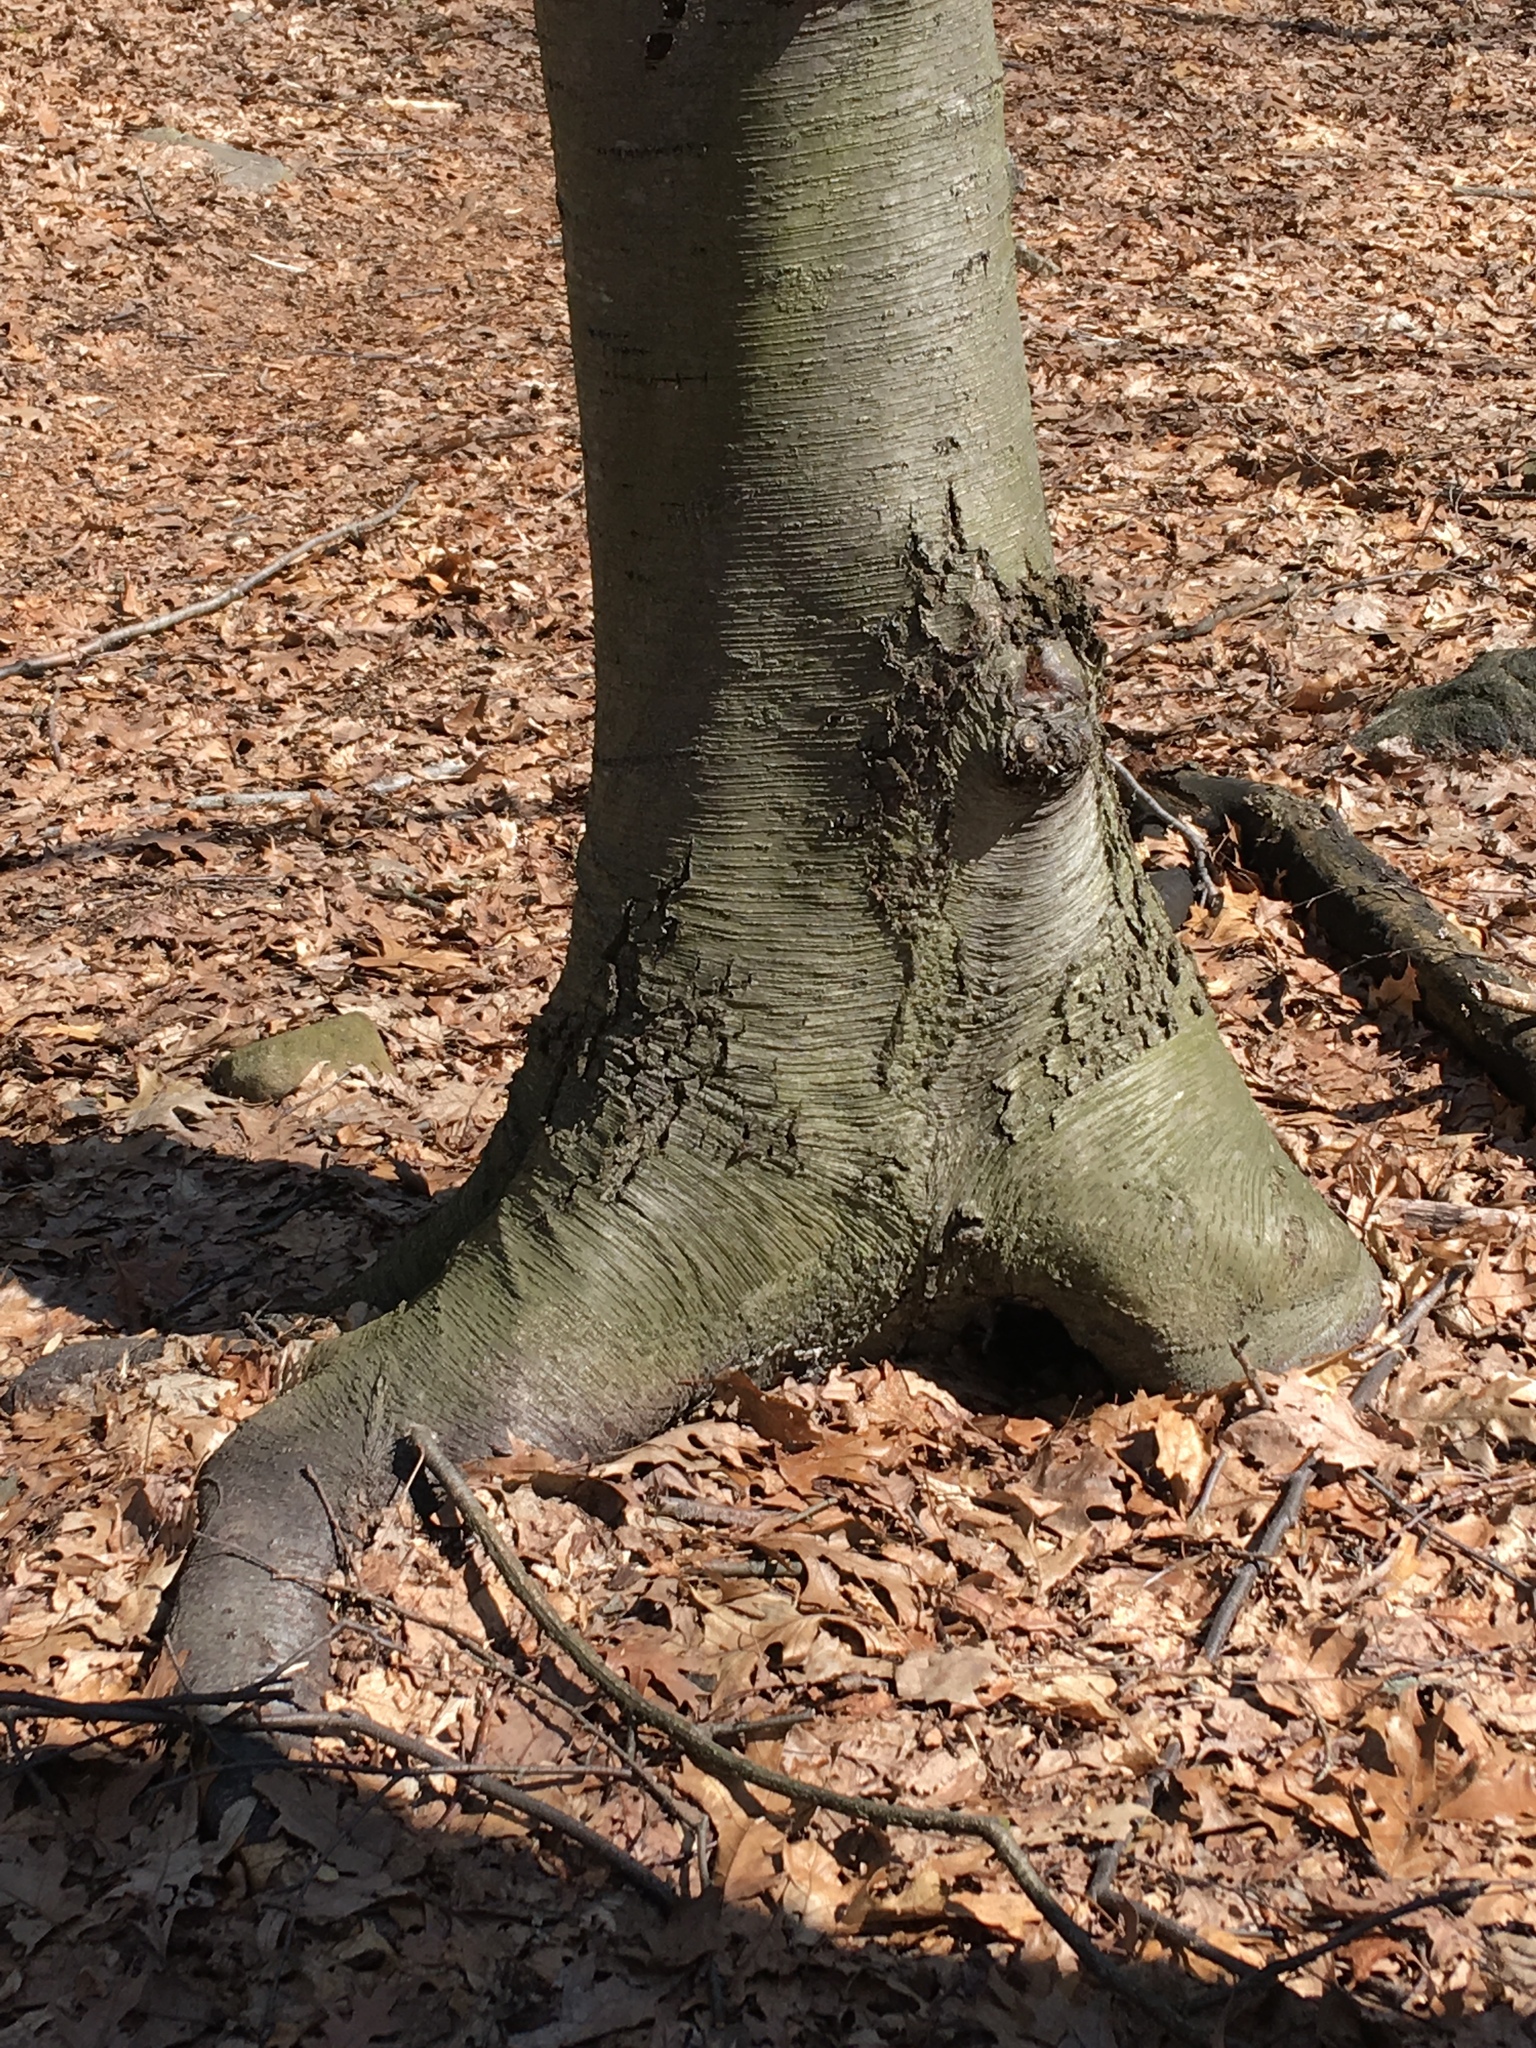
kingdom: Plantae
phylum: Tracheophyta
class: Magnoliopsida
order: Fagales
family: Betulaceae
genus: Betula
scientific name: Betula lenta
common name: Black birch
